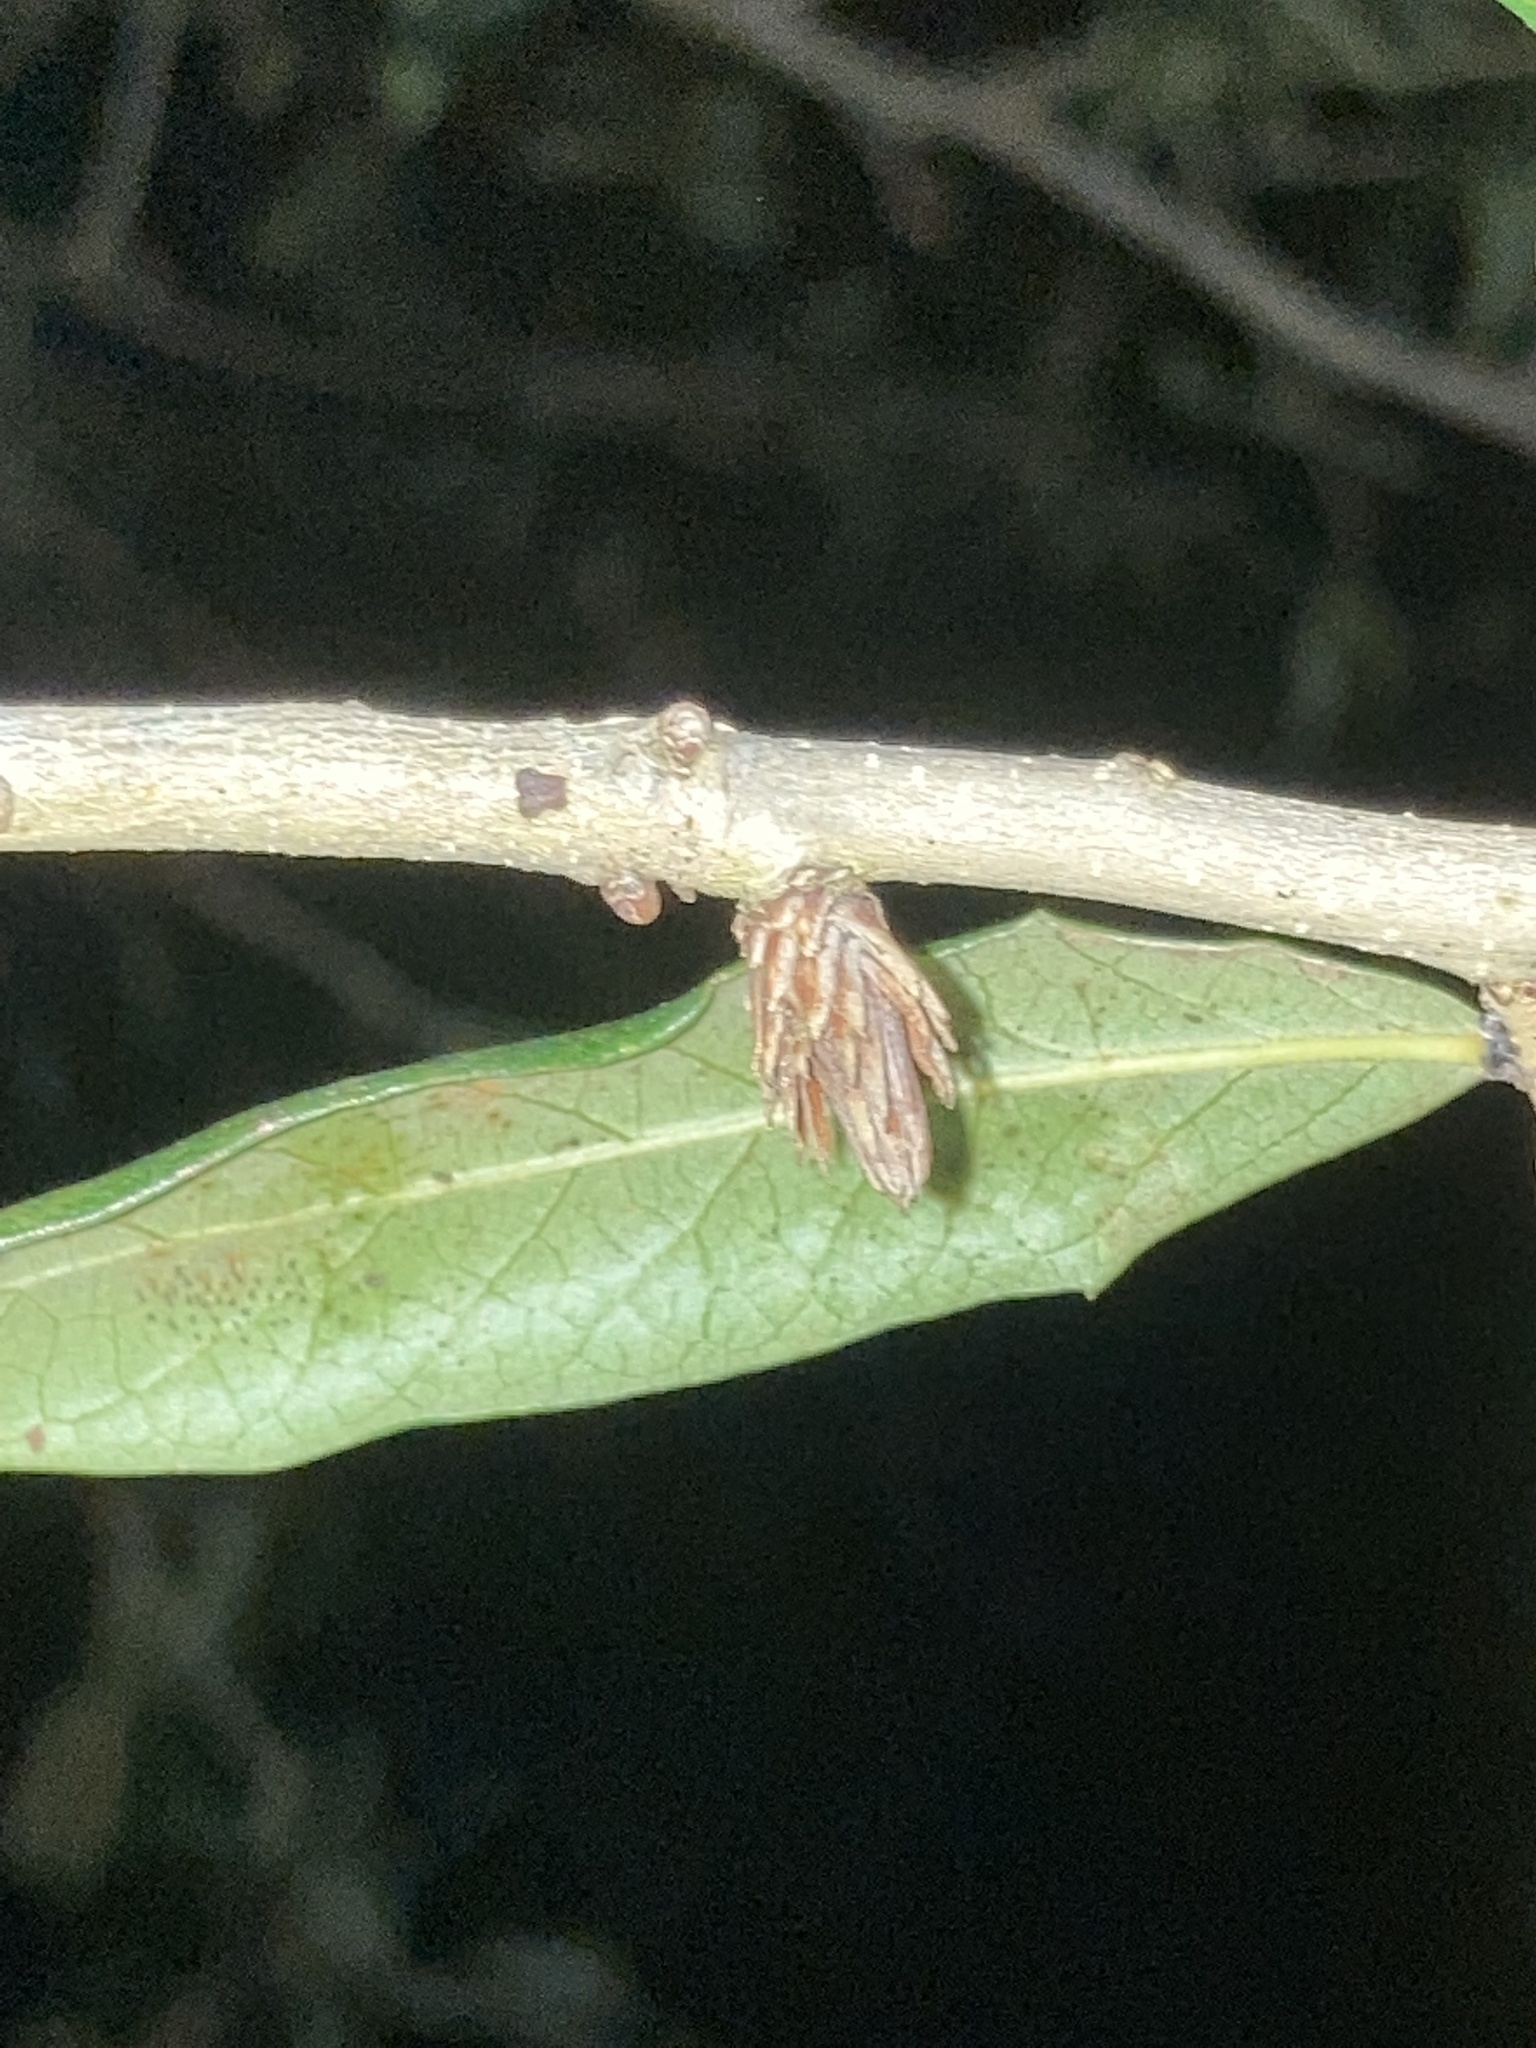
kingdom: Animalia
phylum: Arthropoda
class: Insecta
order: Hymenoptera
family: Cynipidae
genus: Andricus
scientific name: Andricus quercusfoliatus
